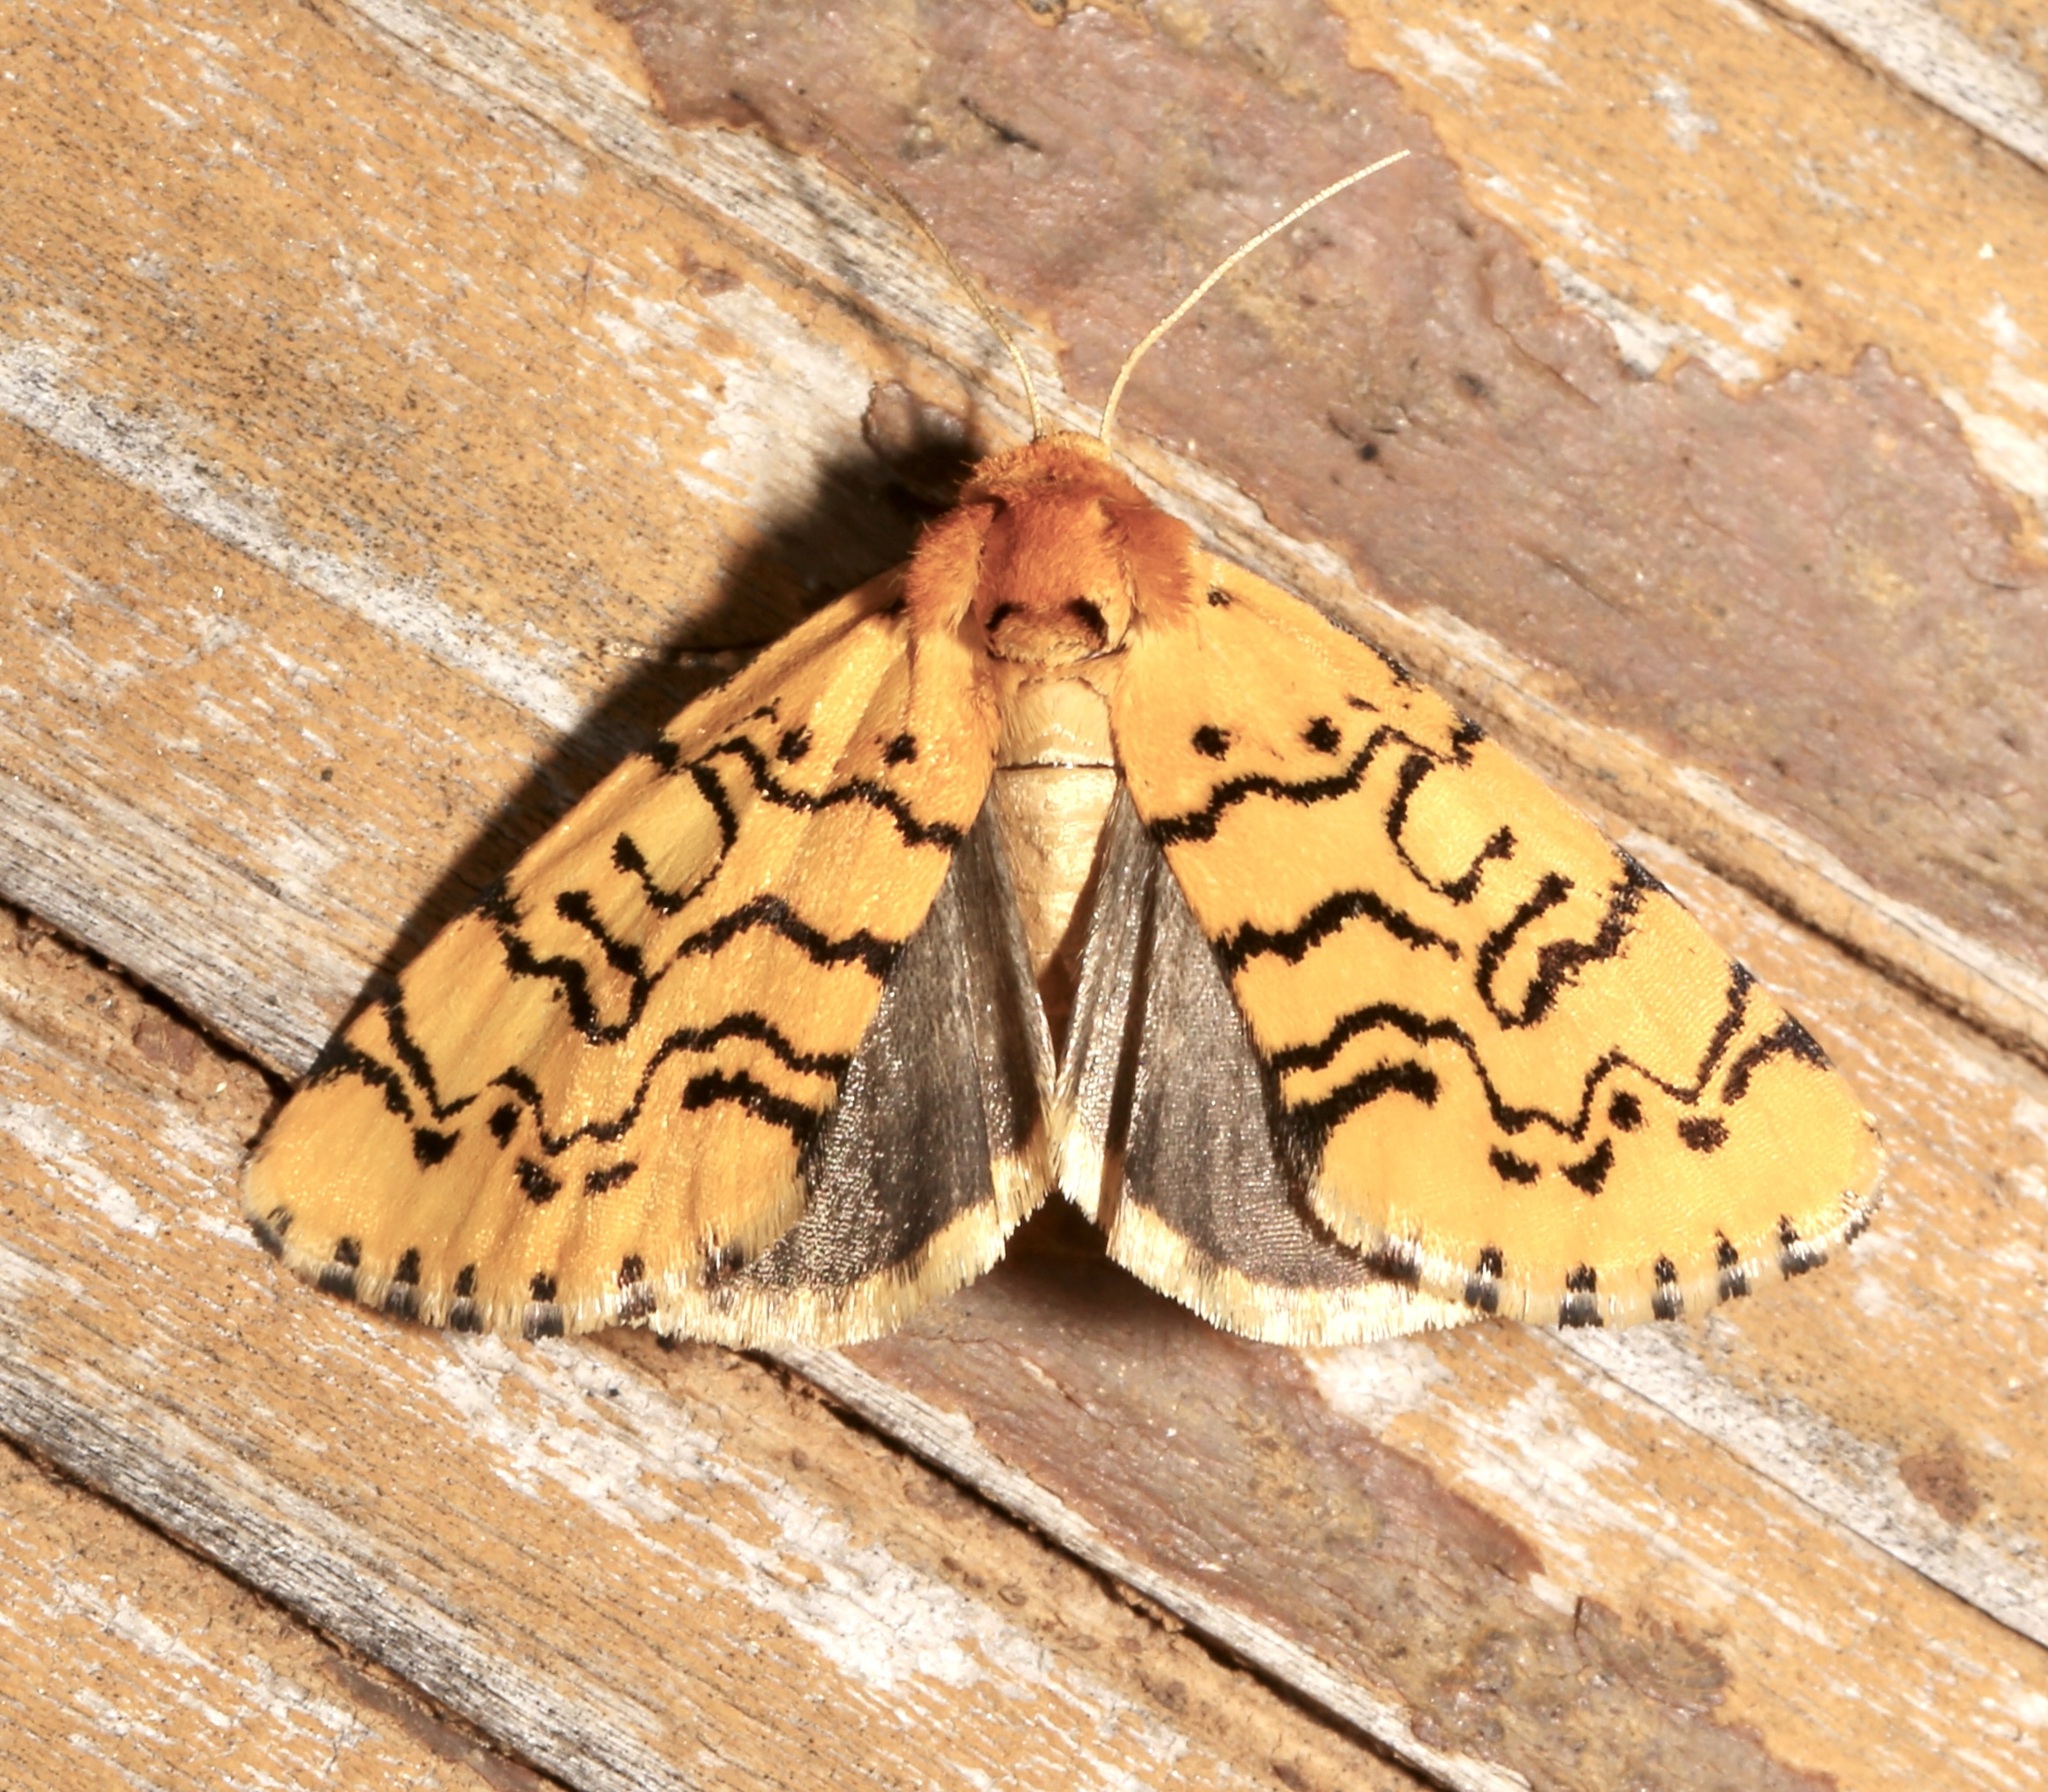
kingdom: Animalia
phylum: Arthropoda
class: Insecta
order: Lepidoptera
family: Noctuidae
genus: Chrysoecia
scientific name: Chrysoecia atrolinea
